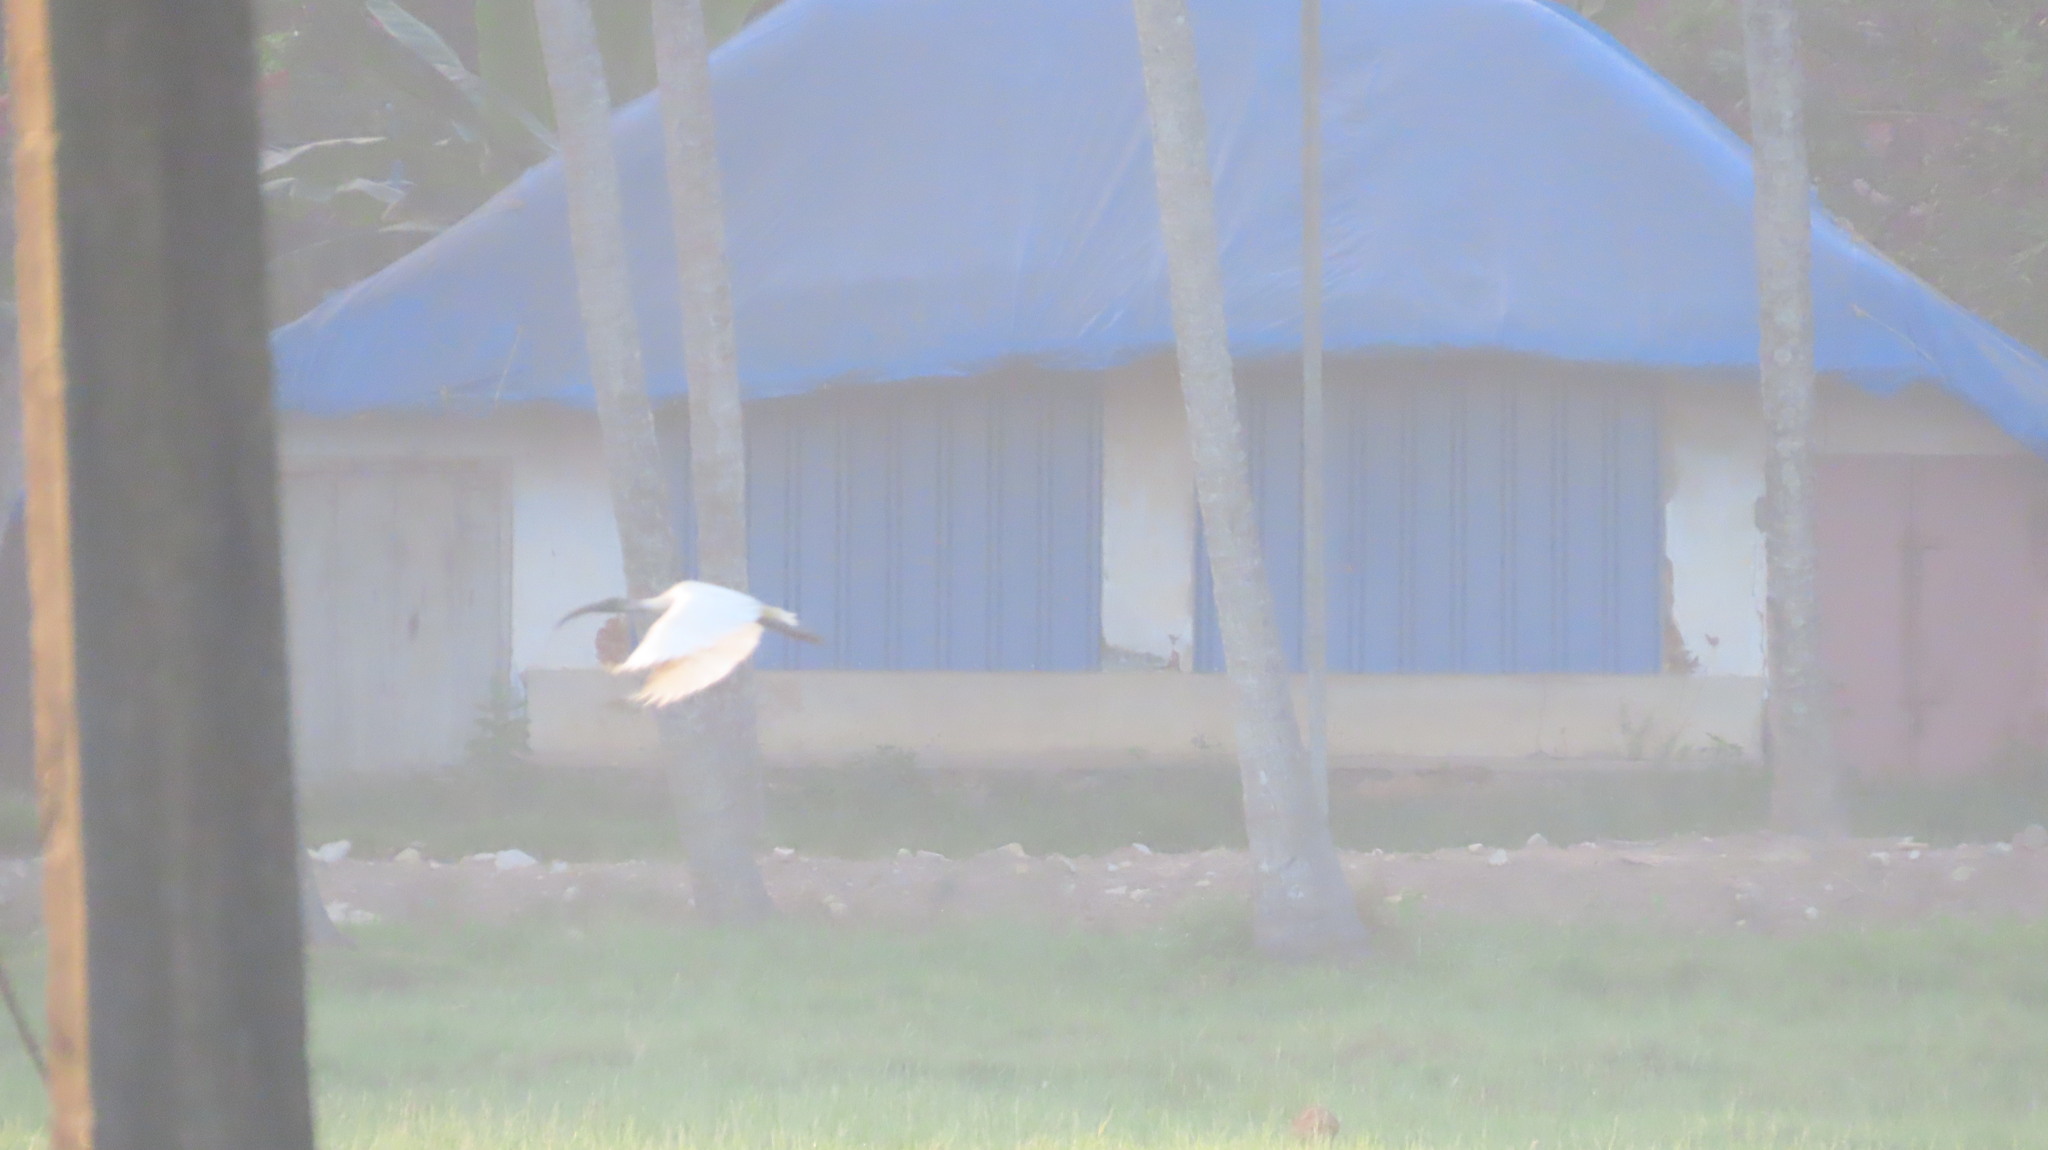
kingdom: Animalia
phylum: Chordata
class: Aves
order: Pelecaniformes
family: Threskiornithidae
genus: Threskiornis
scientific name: Threskiornis melanocephalus
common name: Black-headed ibis
